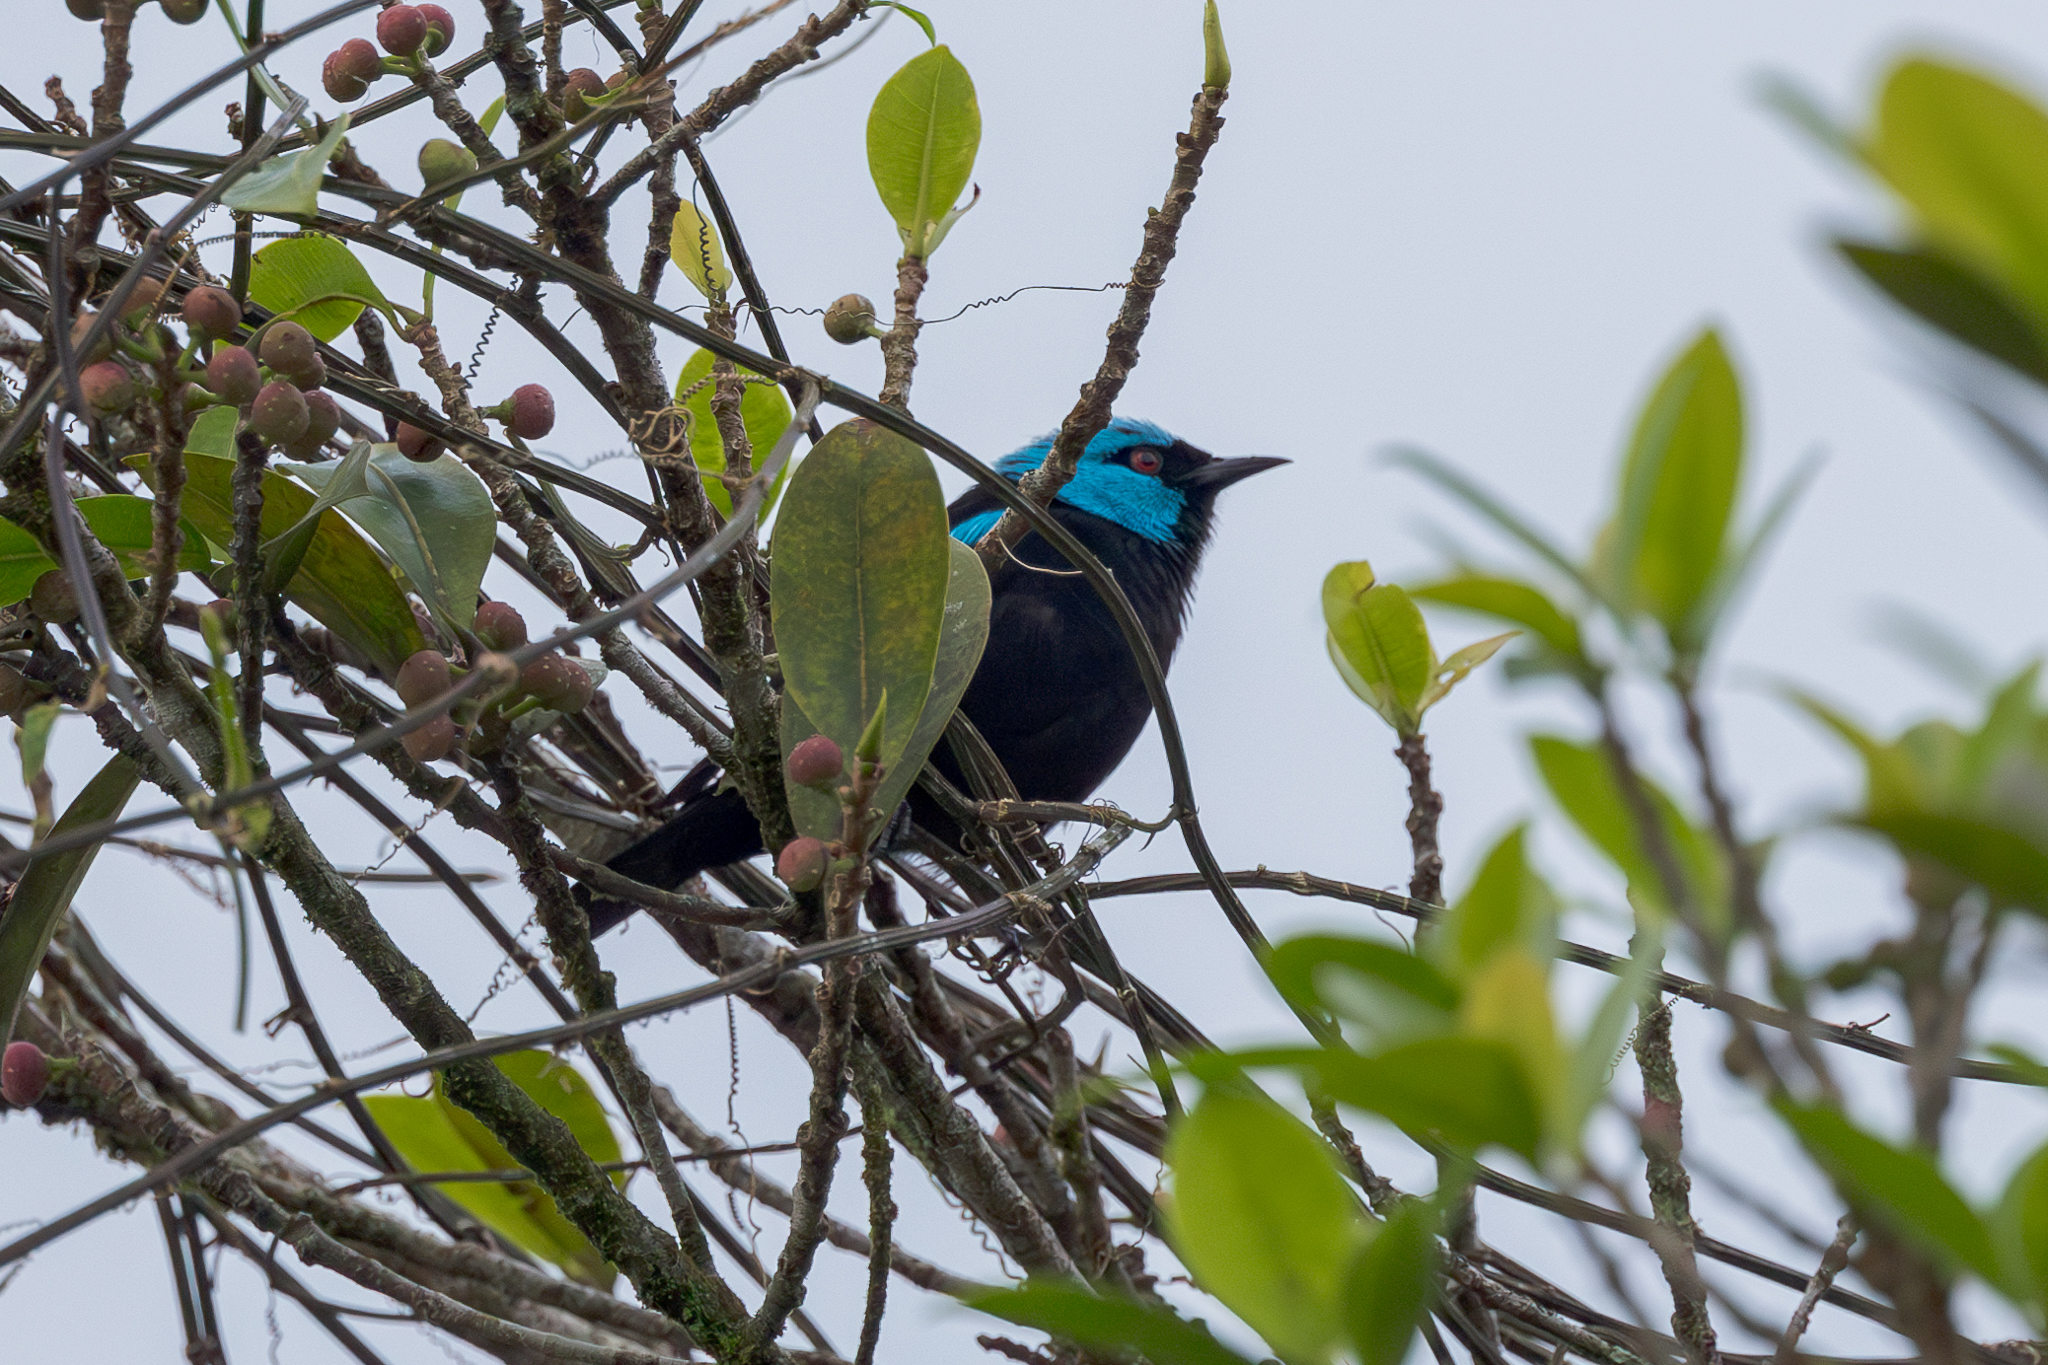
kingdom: Animalia
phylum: Chordata
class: Aves
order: Passeriformes
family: Thraupidae
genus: Dacnis
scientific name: Dacnis venusta
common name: Scarlet-thighed dacnis
